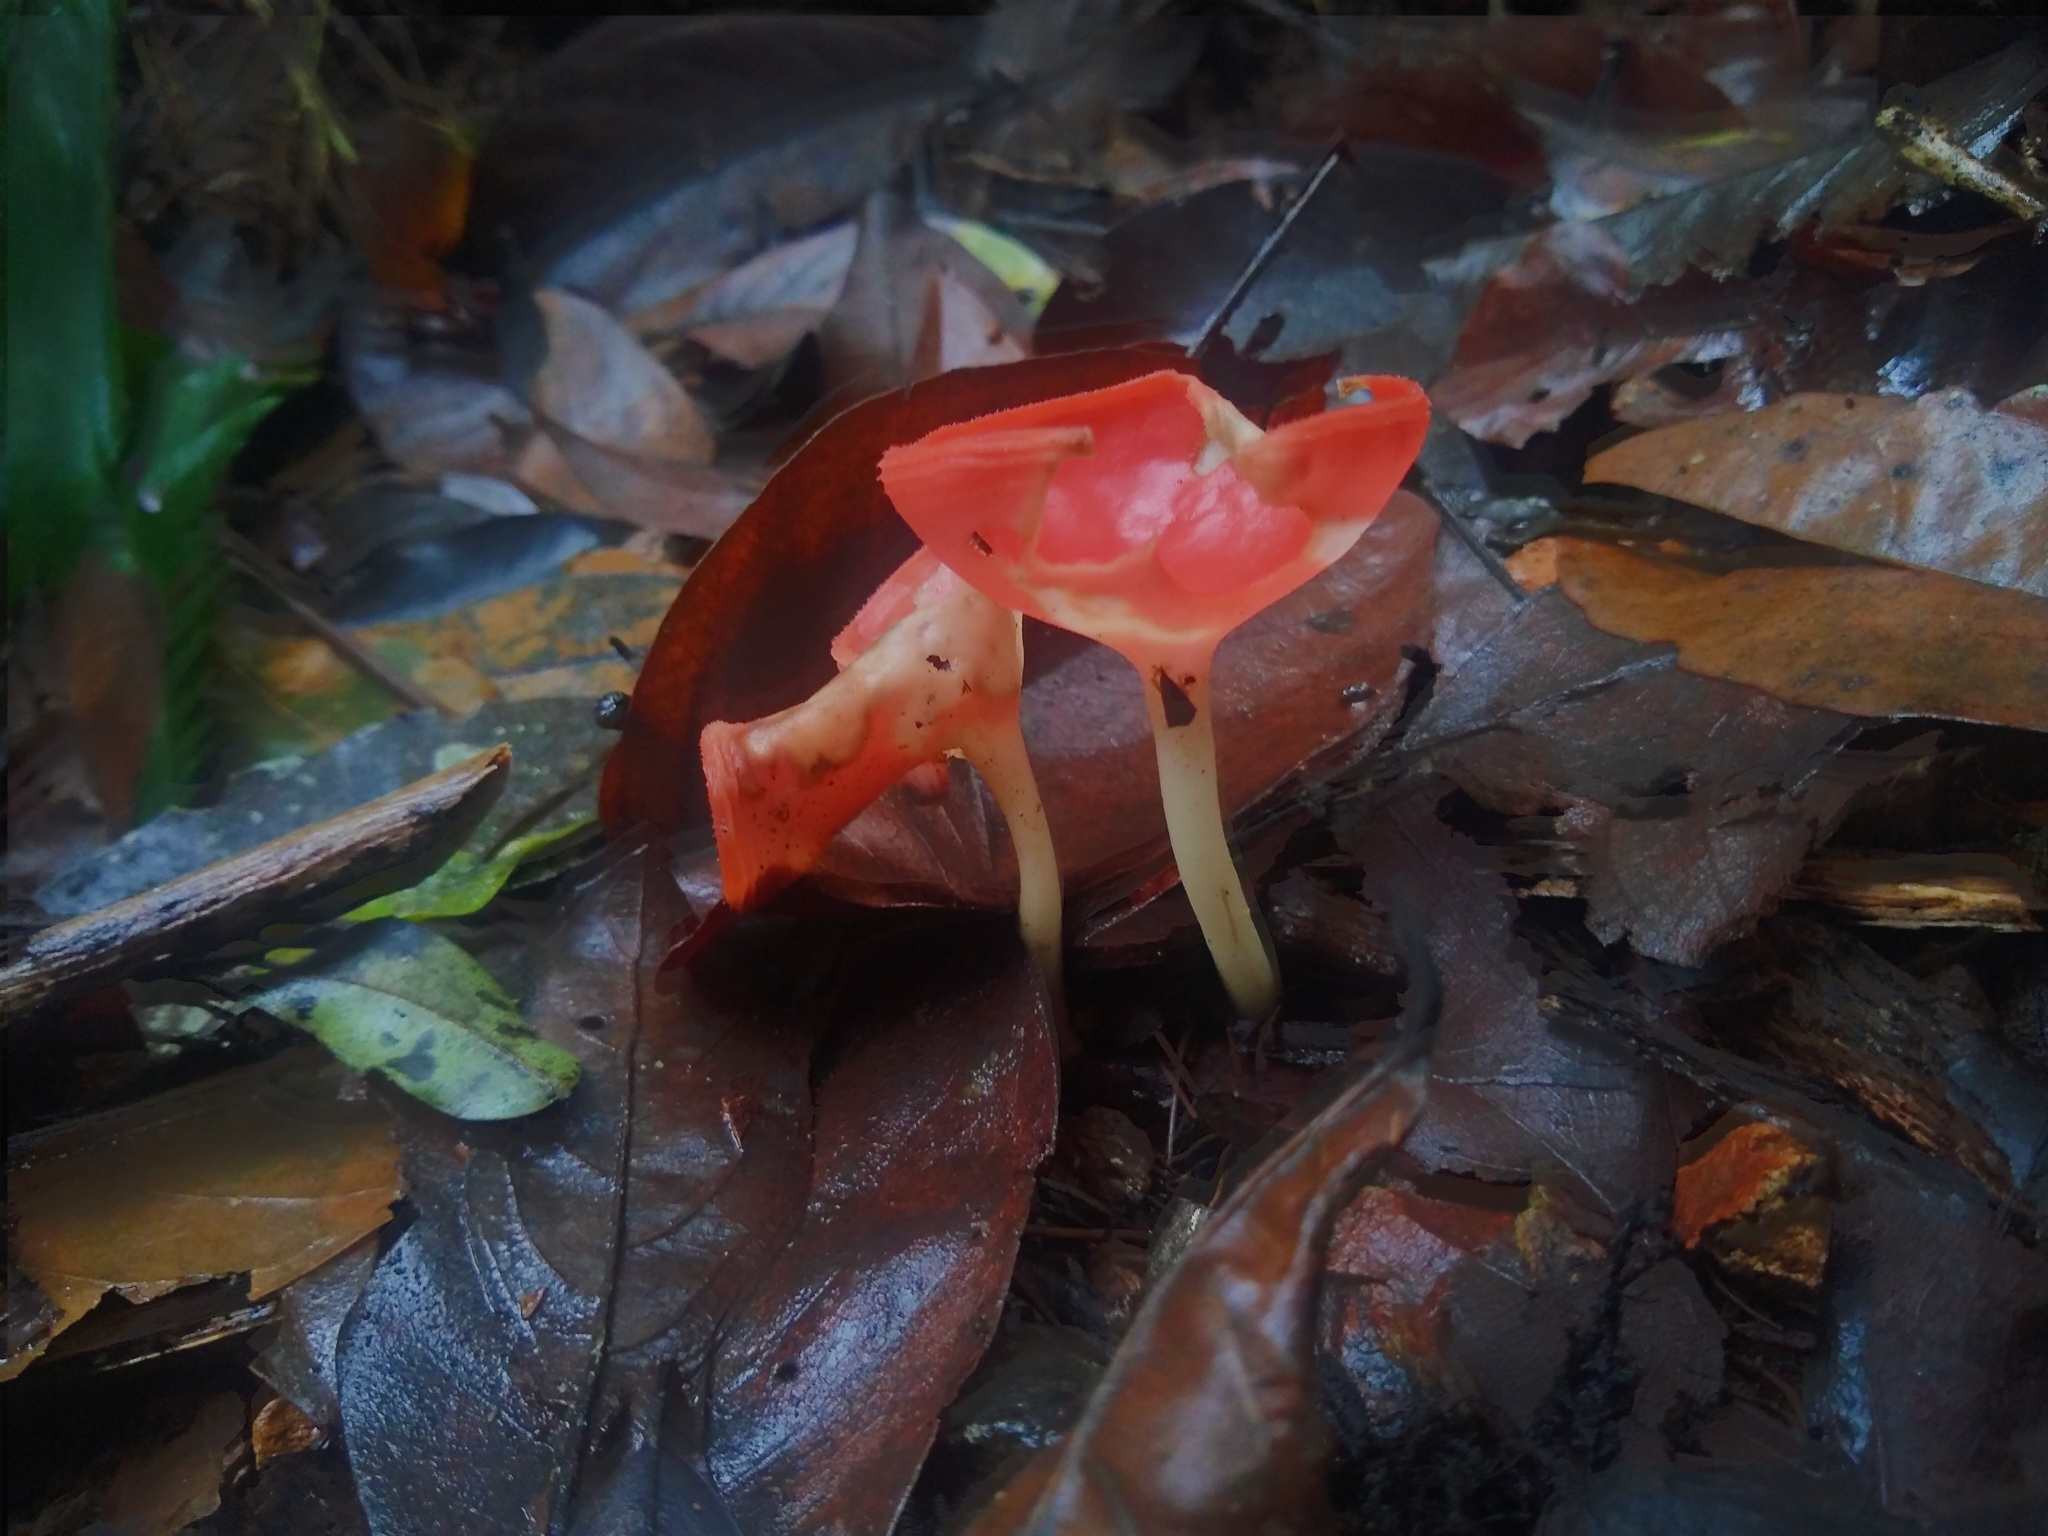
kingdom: Fungi
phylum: Ascomycota
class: Pezizomycetes
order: Pezizales
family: Sarcoscyphaceae
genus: Cookeina
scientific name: Cookeina speciosa
